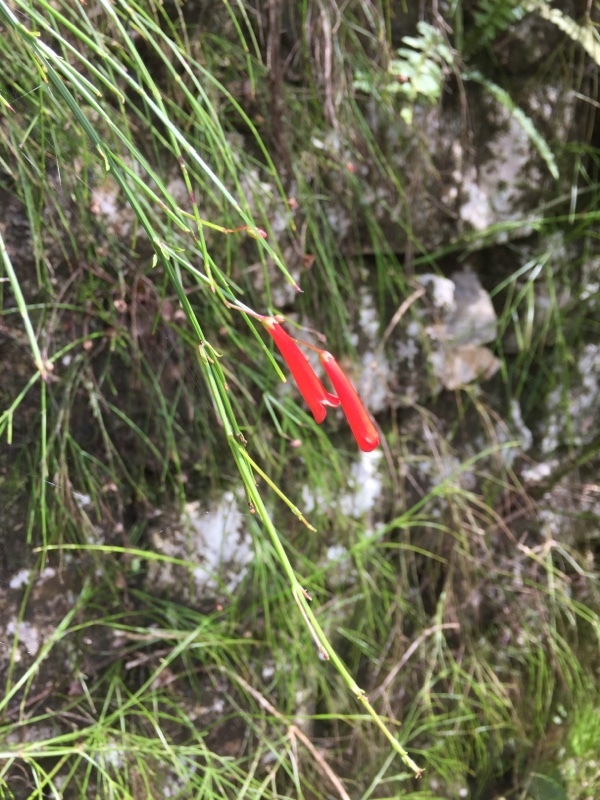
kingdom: Plantae
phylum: Tracheophyta
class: Magnoliopsida
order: Lamiales
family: Plantaginaceae
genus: Russelia
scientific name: Russelia equisetiformis
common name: Fountainbush
